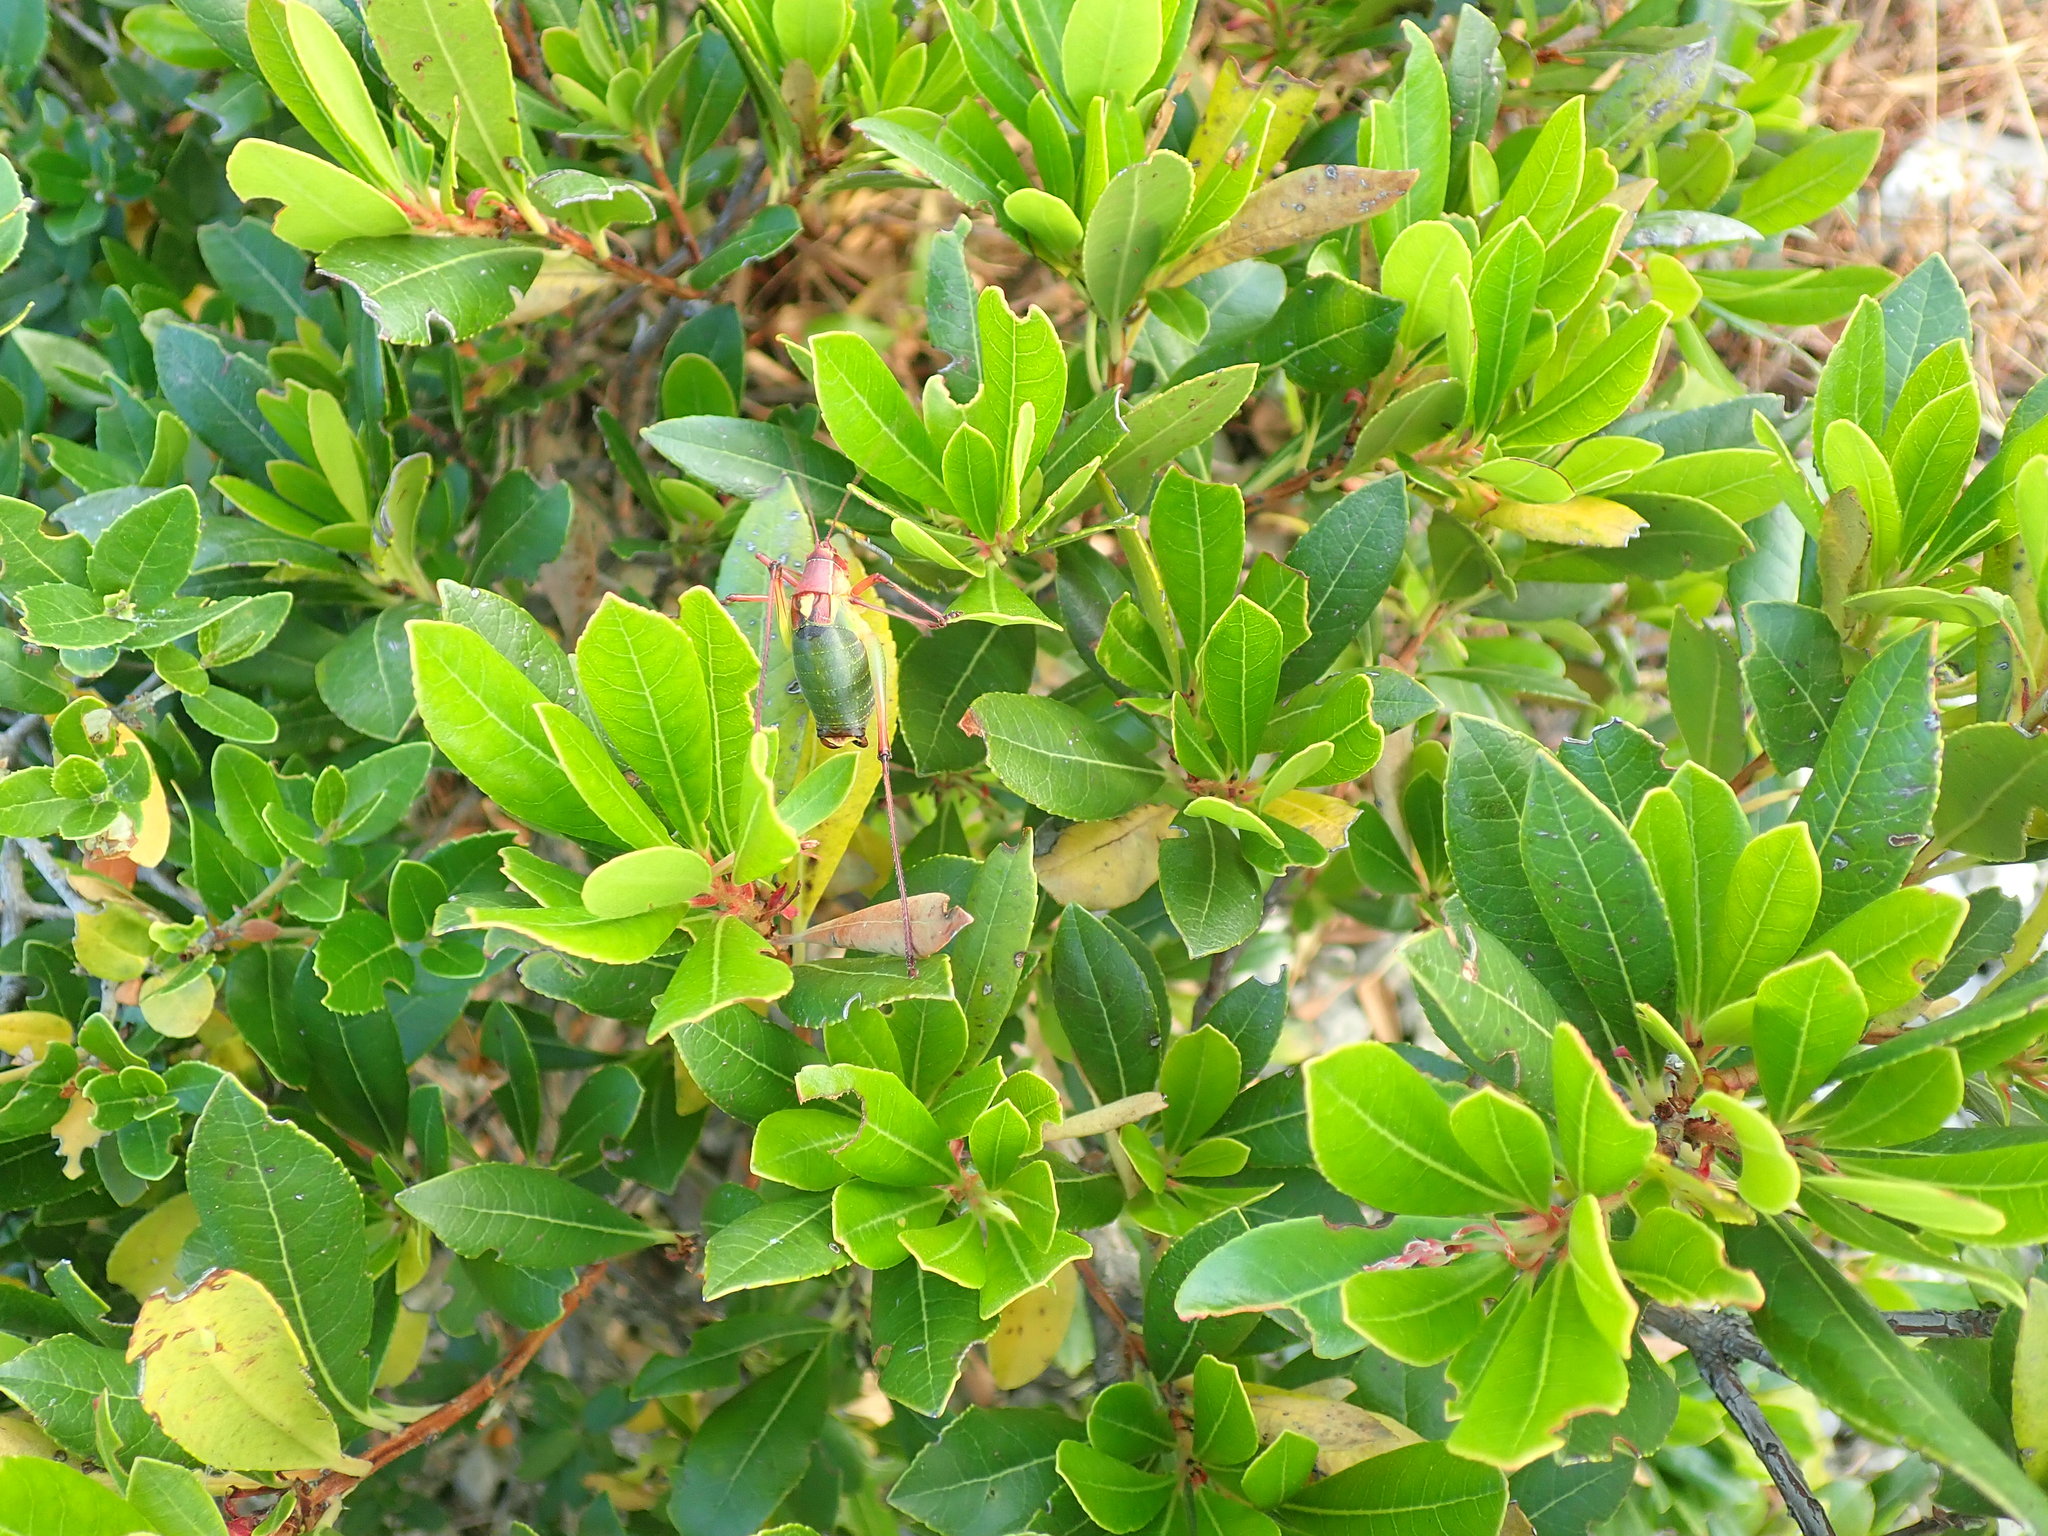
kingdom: Animalia
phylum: Arthropoda
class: Insecta
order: Orthoptera
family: Tettigoniidae
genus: Barbitistes
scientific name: Barbitistes yersini
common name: Balkan saw bush-cricket
